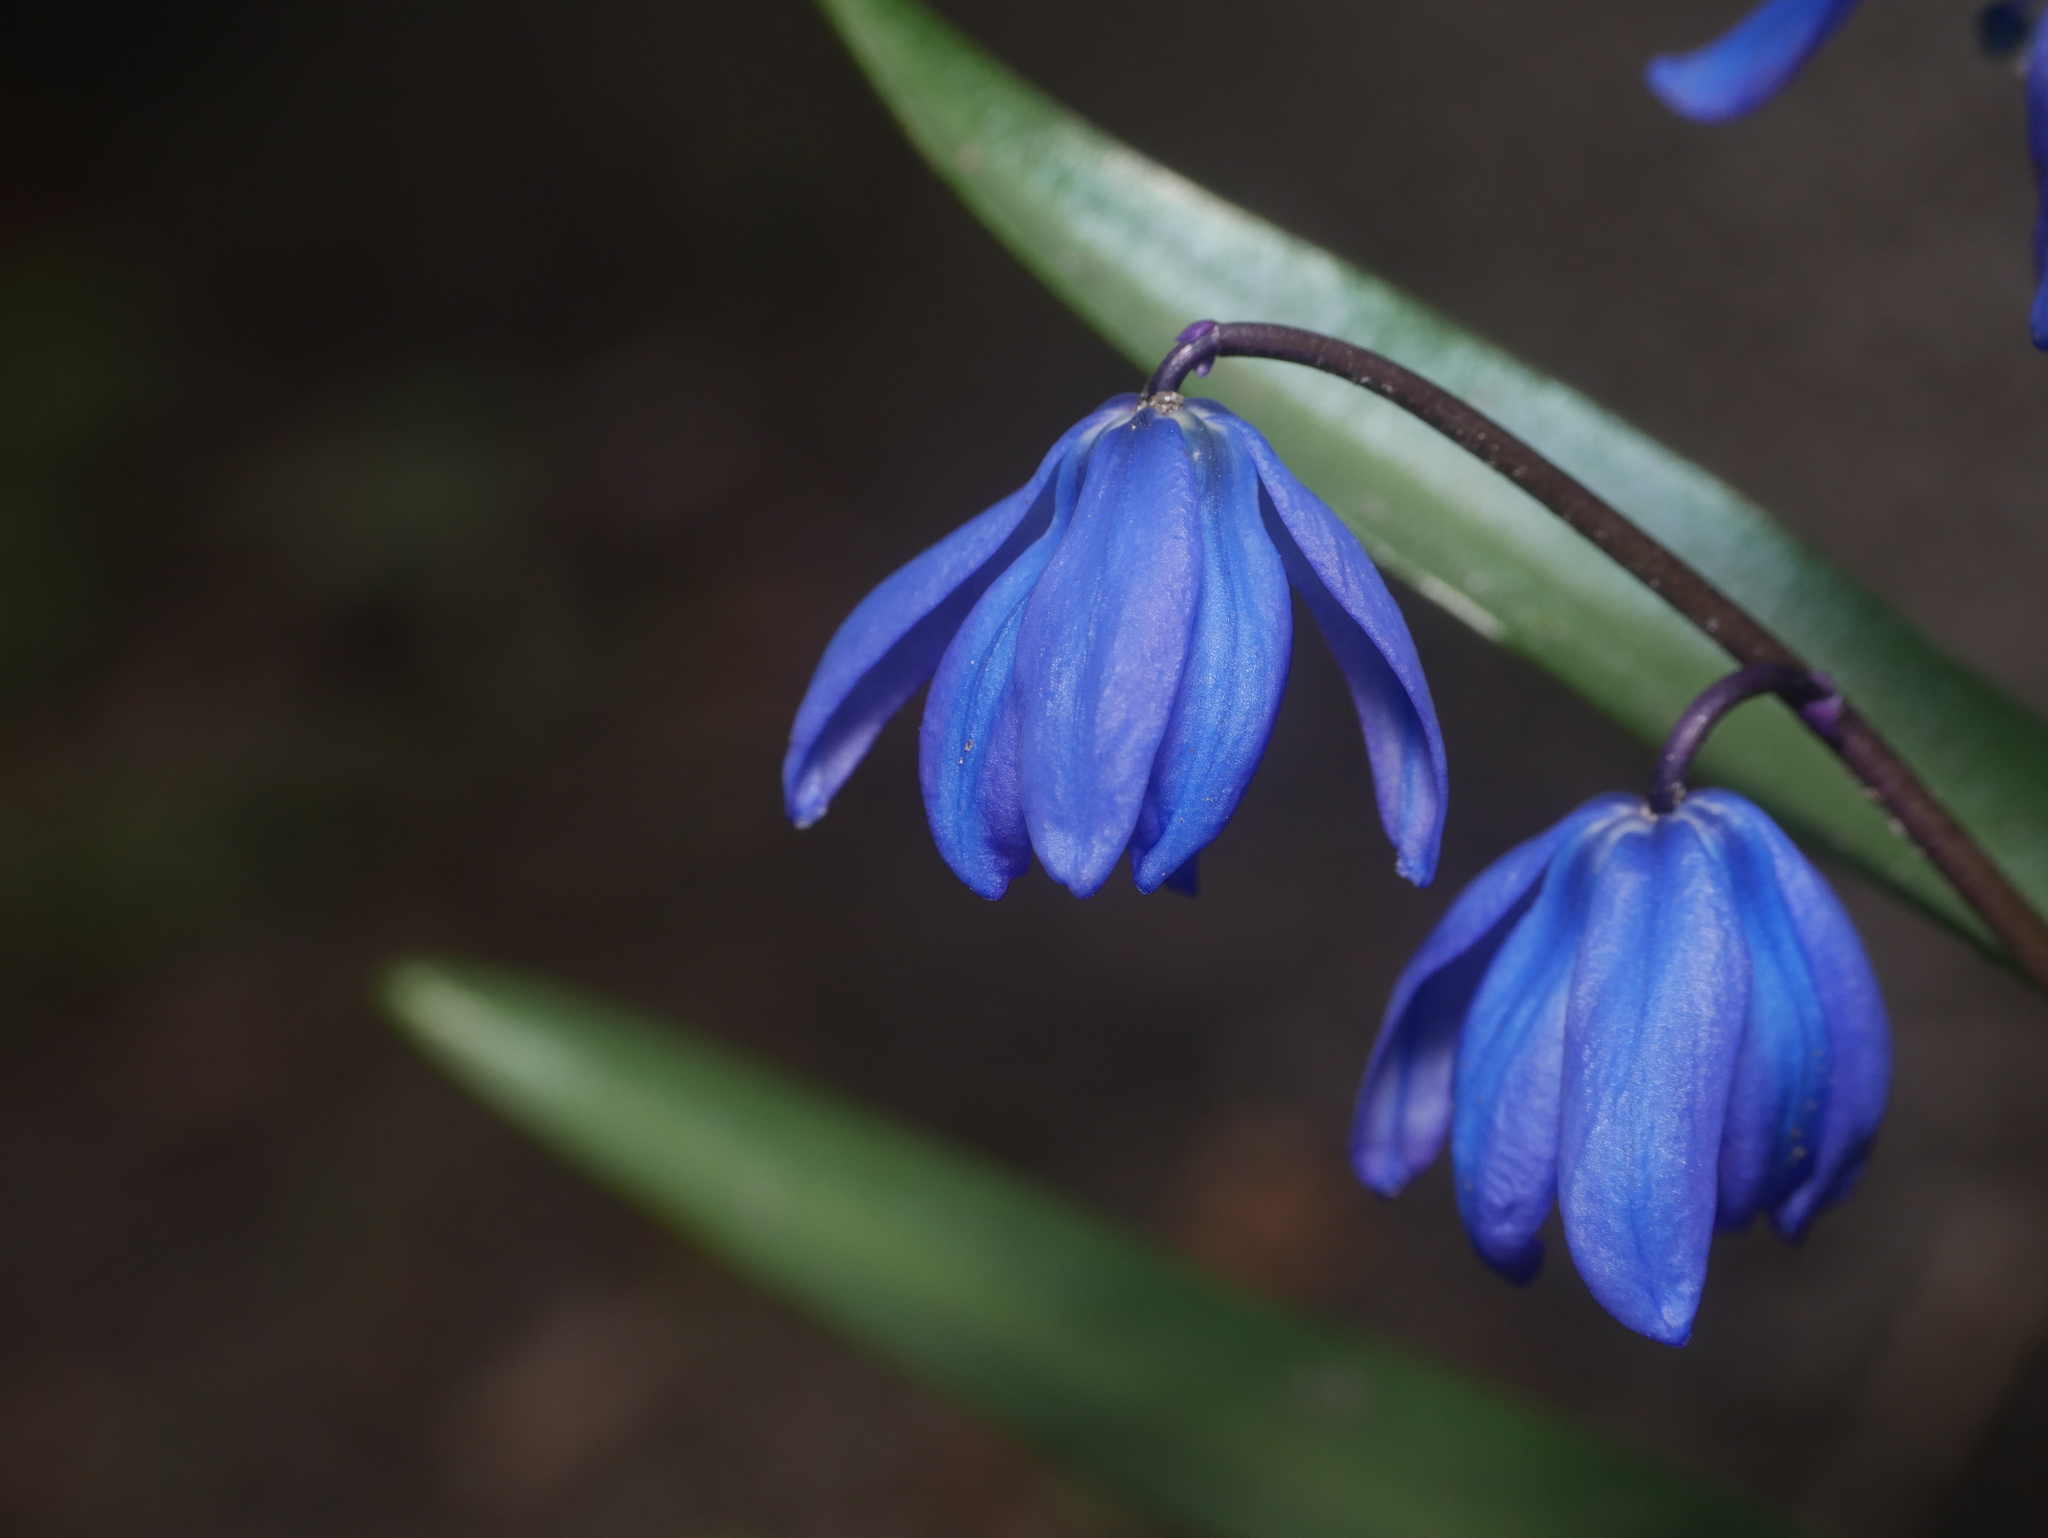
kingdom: Plantae
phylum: Tracheophyta
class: Liliopsida
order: Asparagales
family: Asparagaceae
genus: Scilla
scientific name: Scilla siberica
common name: Siberian squill
